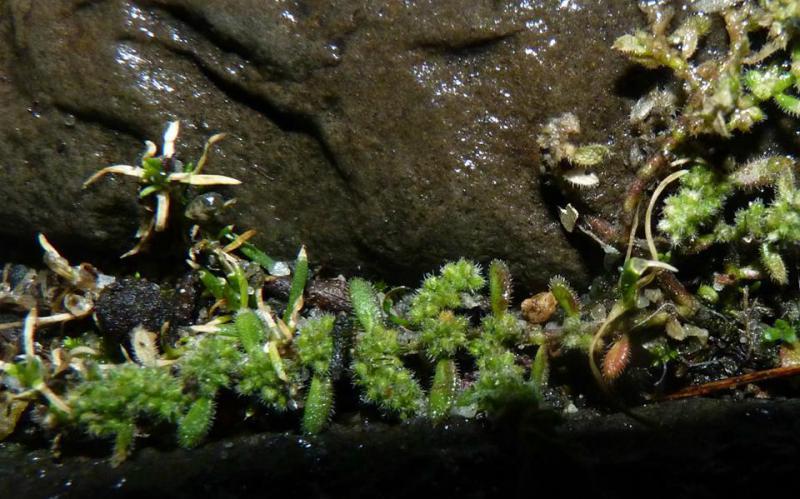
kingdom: Plantae
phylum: Tracheophyta
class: Magnoliopsida
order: Caryophyllales
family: Caryophyllaceae
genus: Herniaria
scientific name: Herniaria hirsuta
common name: Hairy rupturewort
